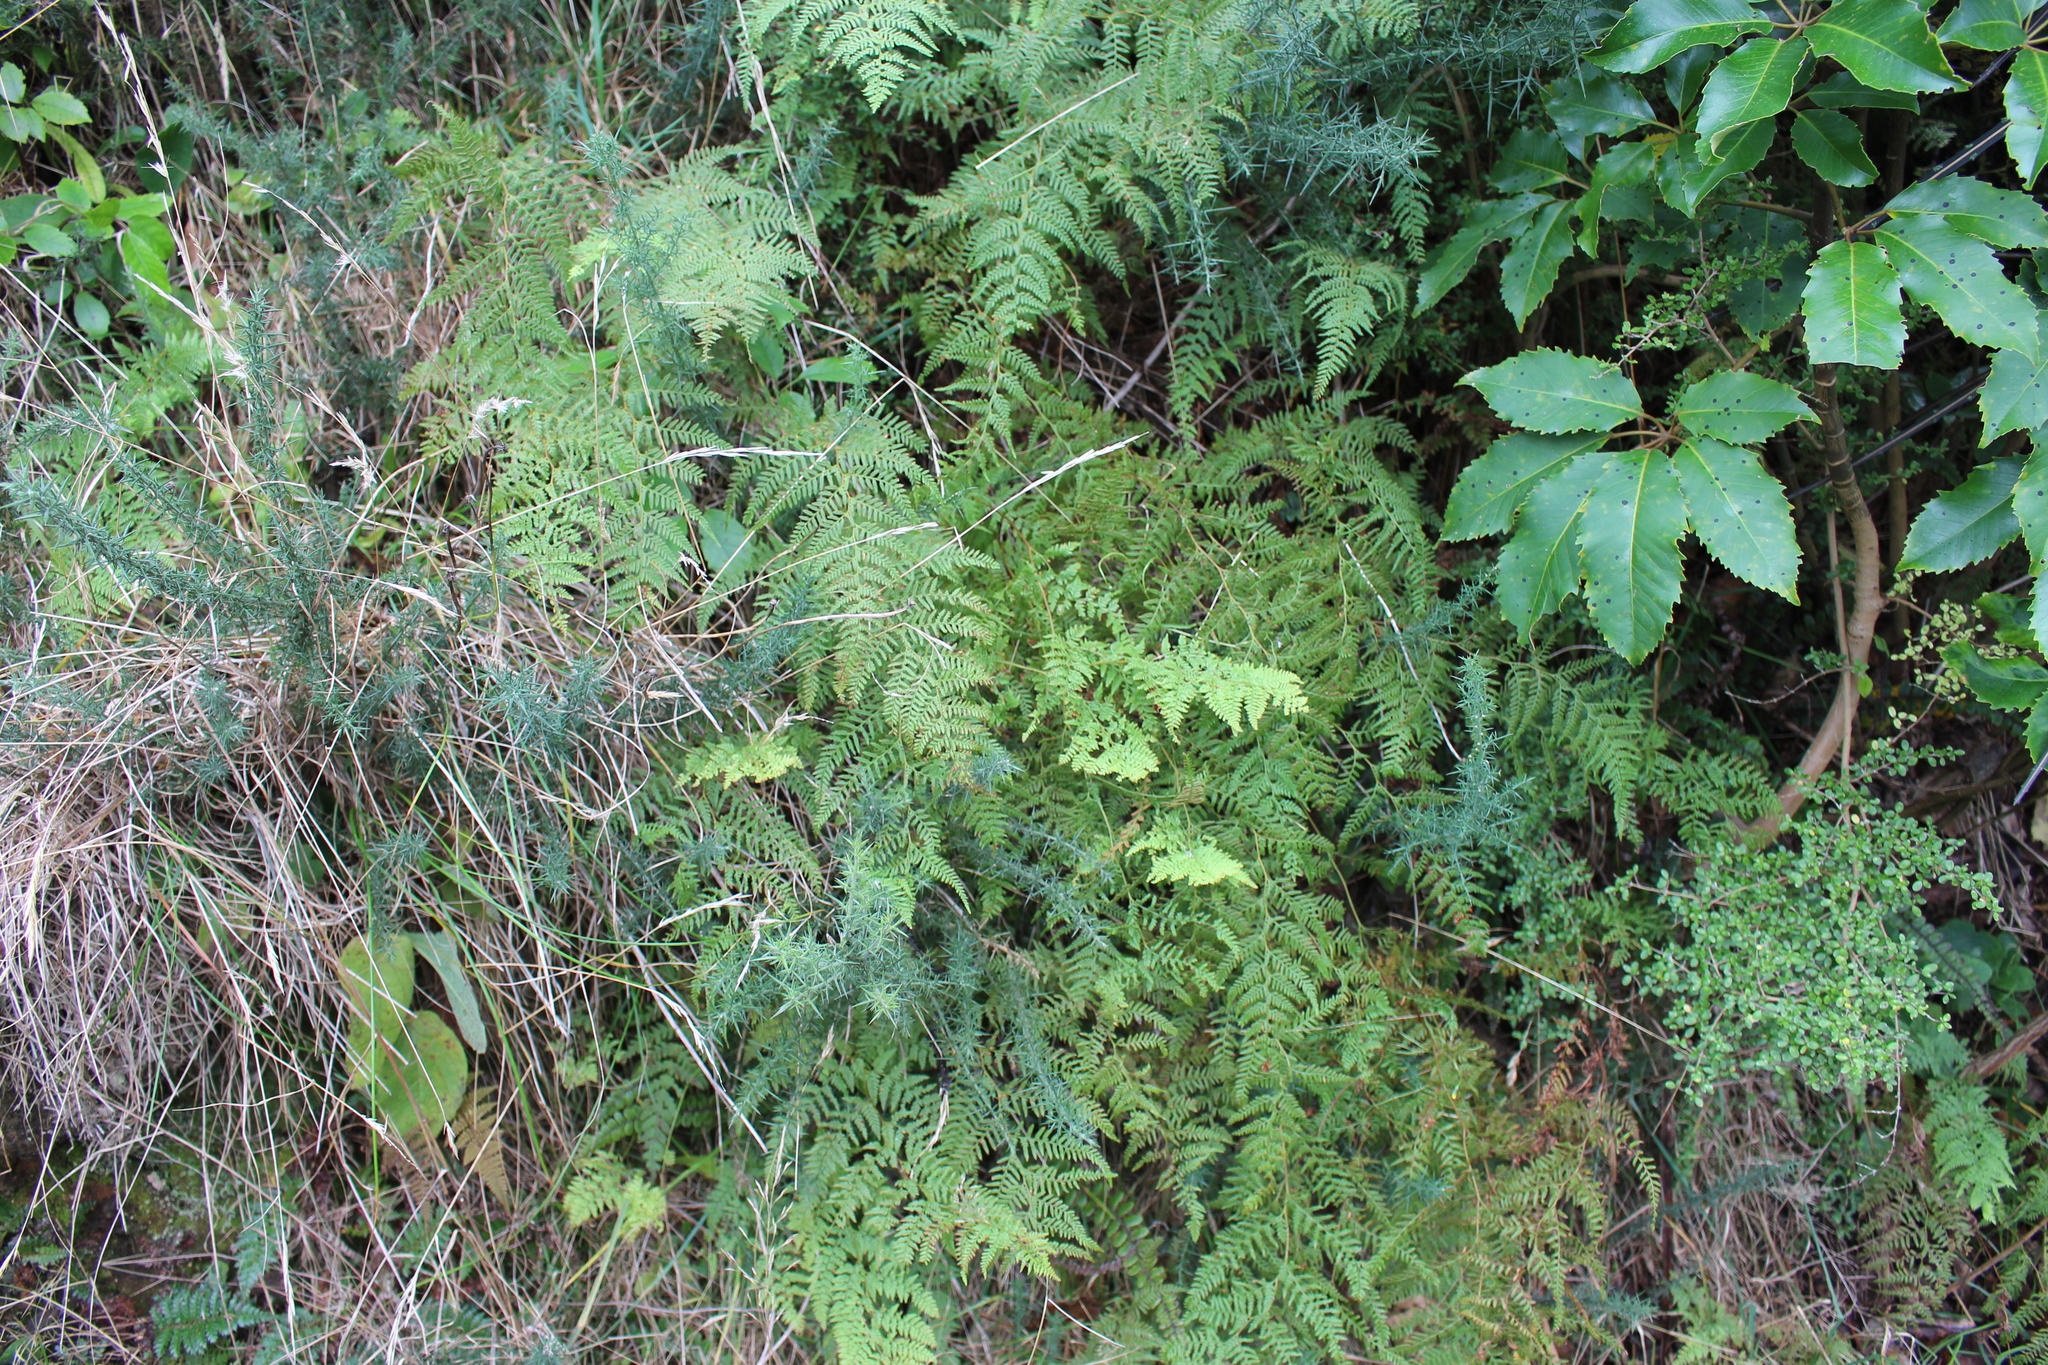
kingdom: Plantae
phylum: Tracheophyta
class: Polypodiopsida
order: Polypodiales
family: Dennstaedtiaceae
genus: Paesia
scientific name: Paesia scaberula
